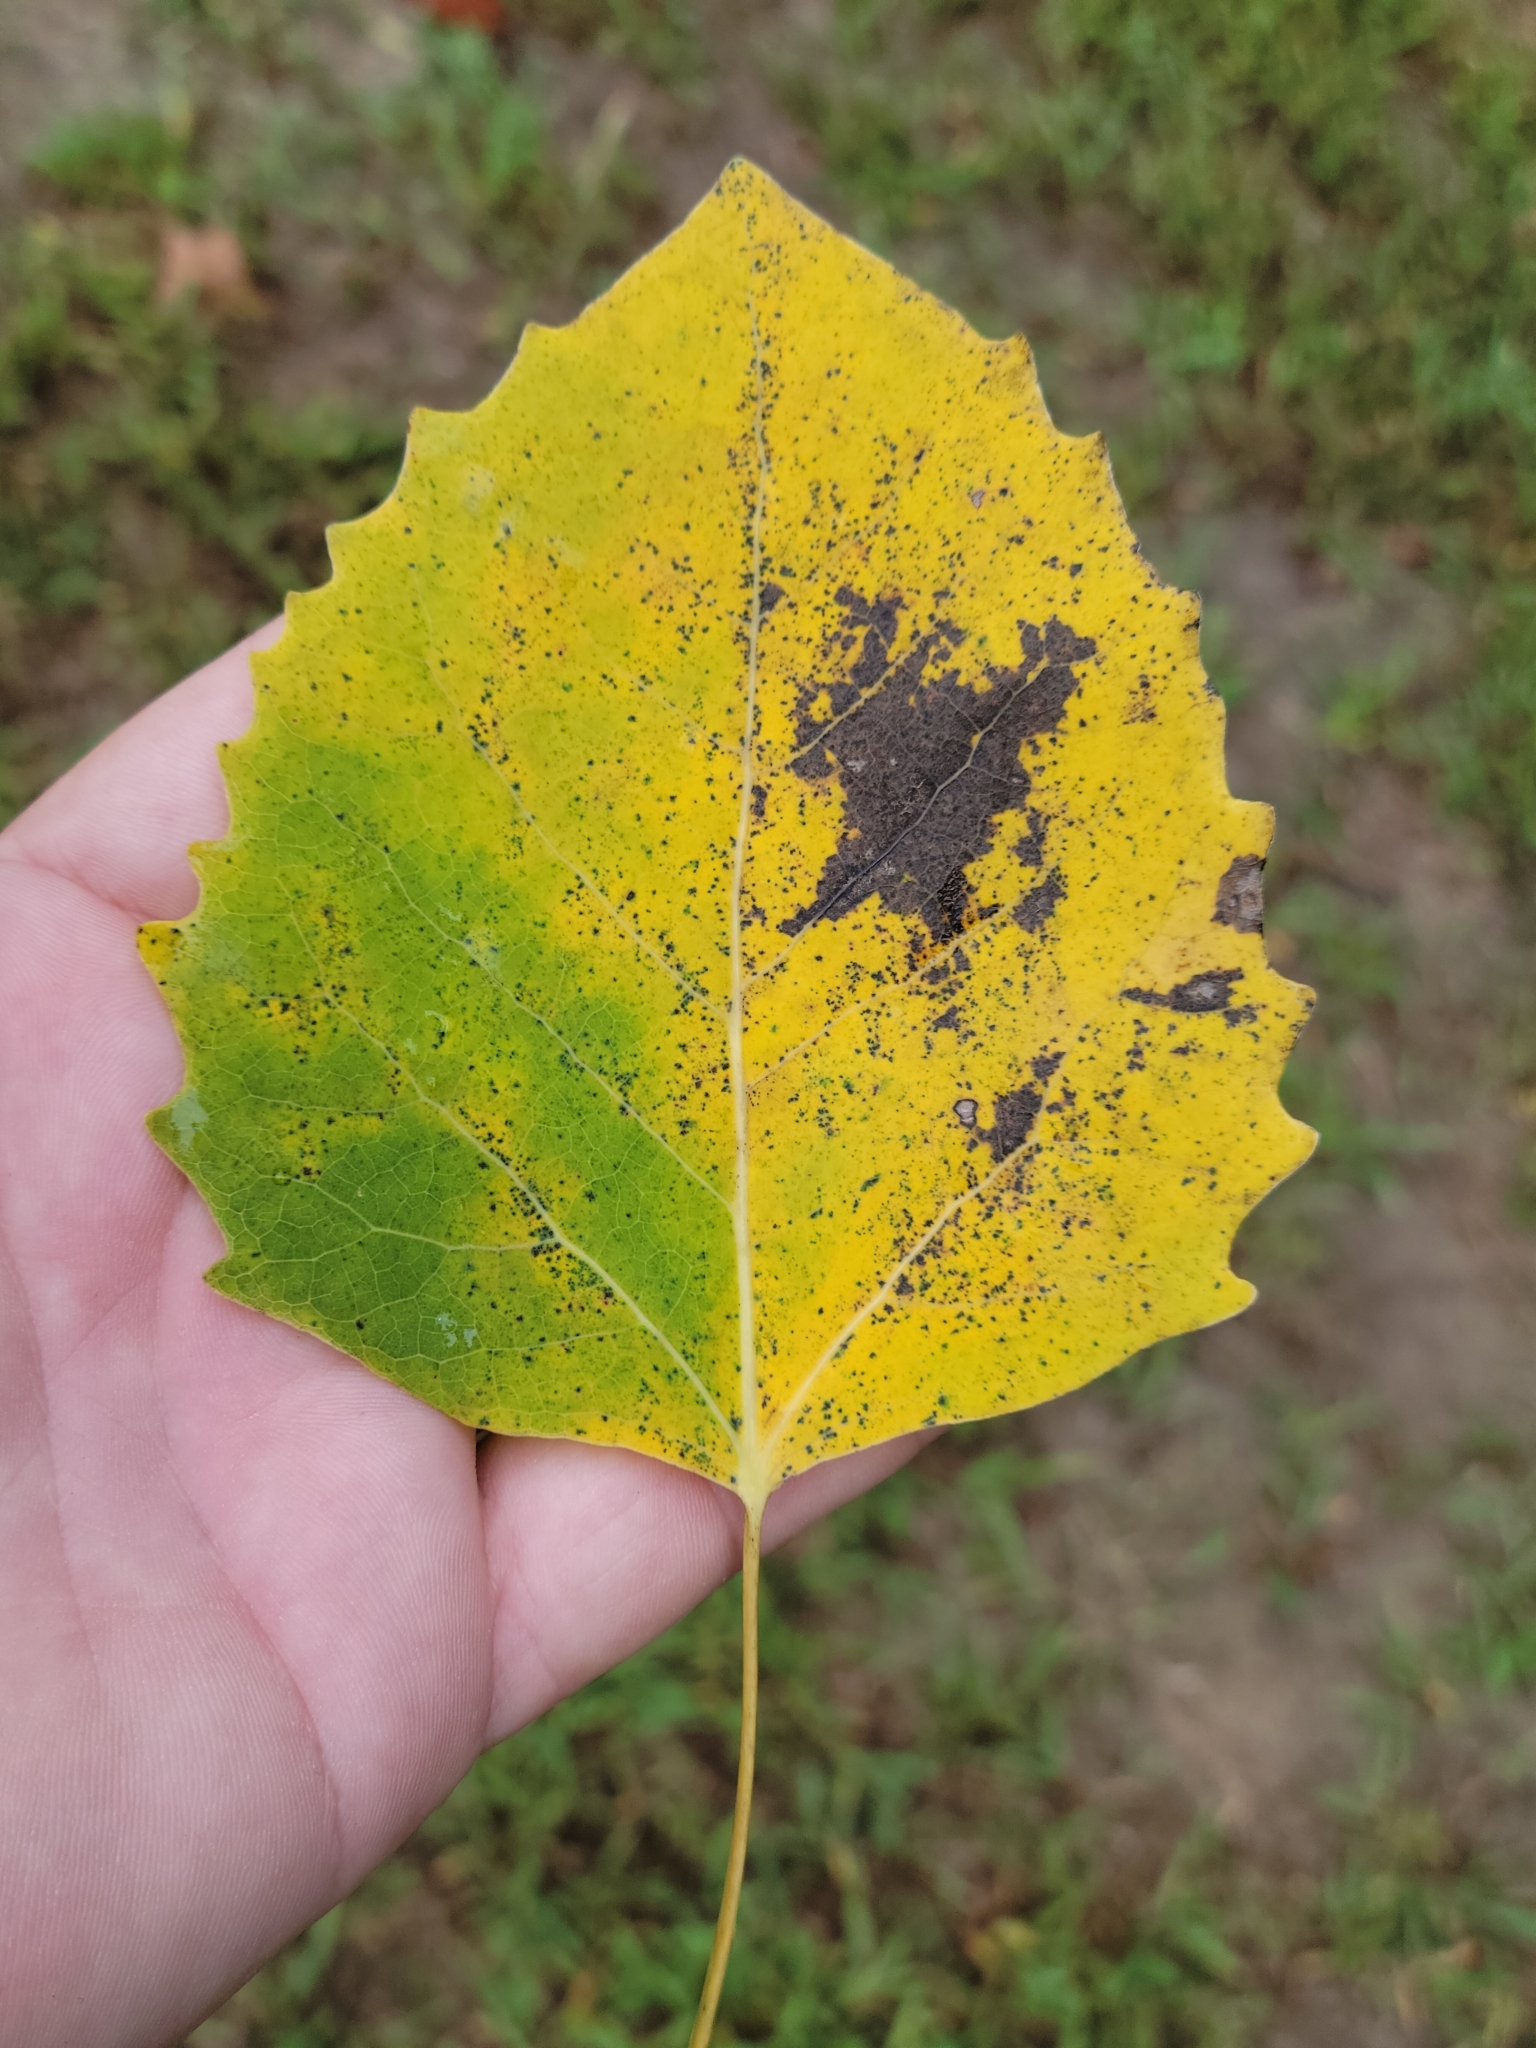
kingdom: Plantae
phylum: Tracheophyta
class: Magnoliopsida
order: Malpighiales
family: Salicaceae
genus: Populus
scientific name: Populus grandidentata
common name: Bigtooth aspen
